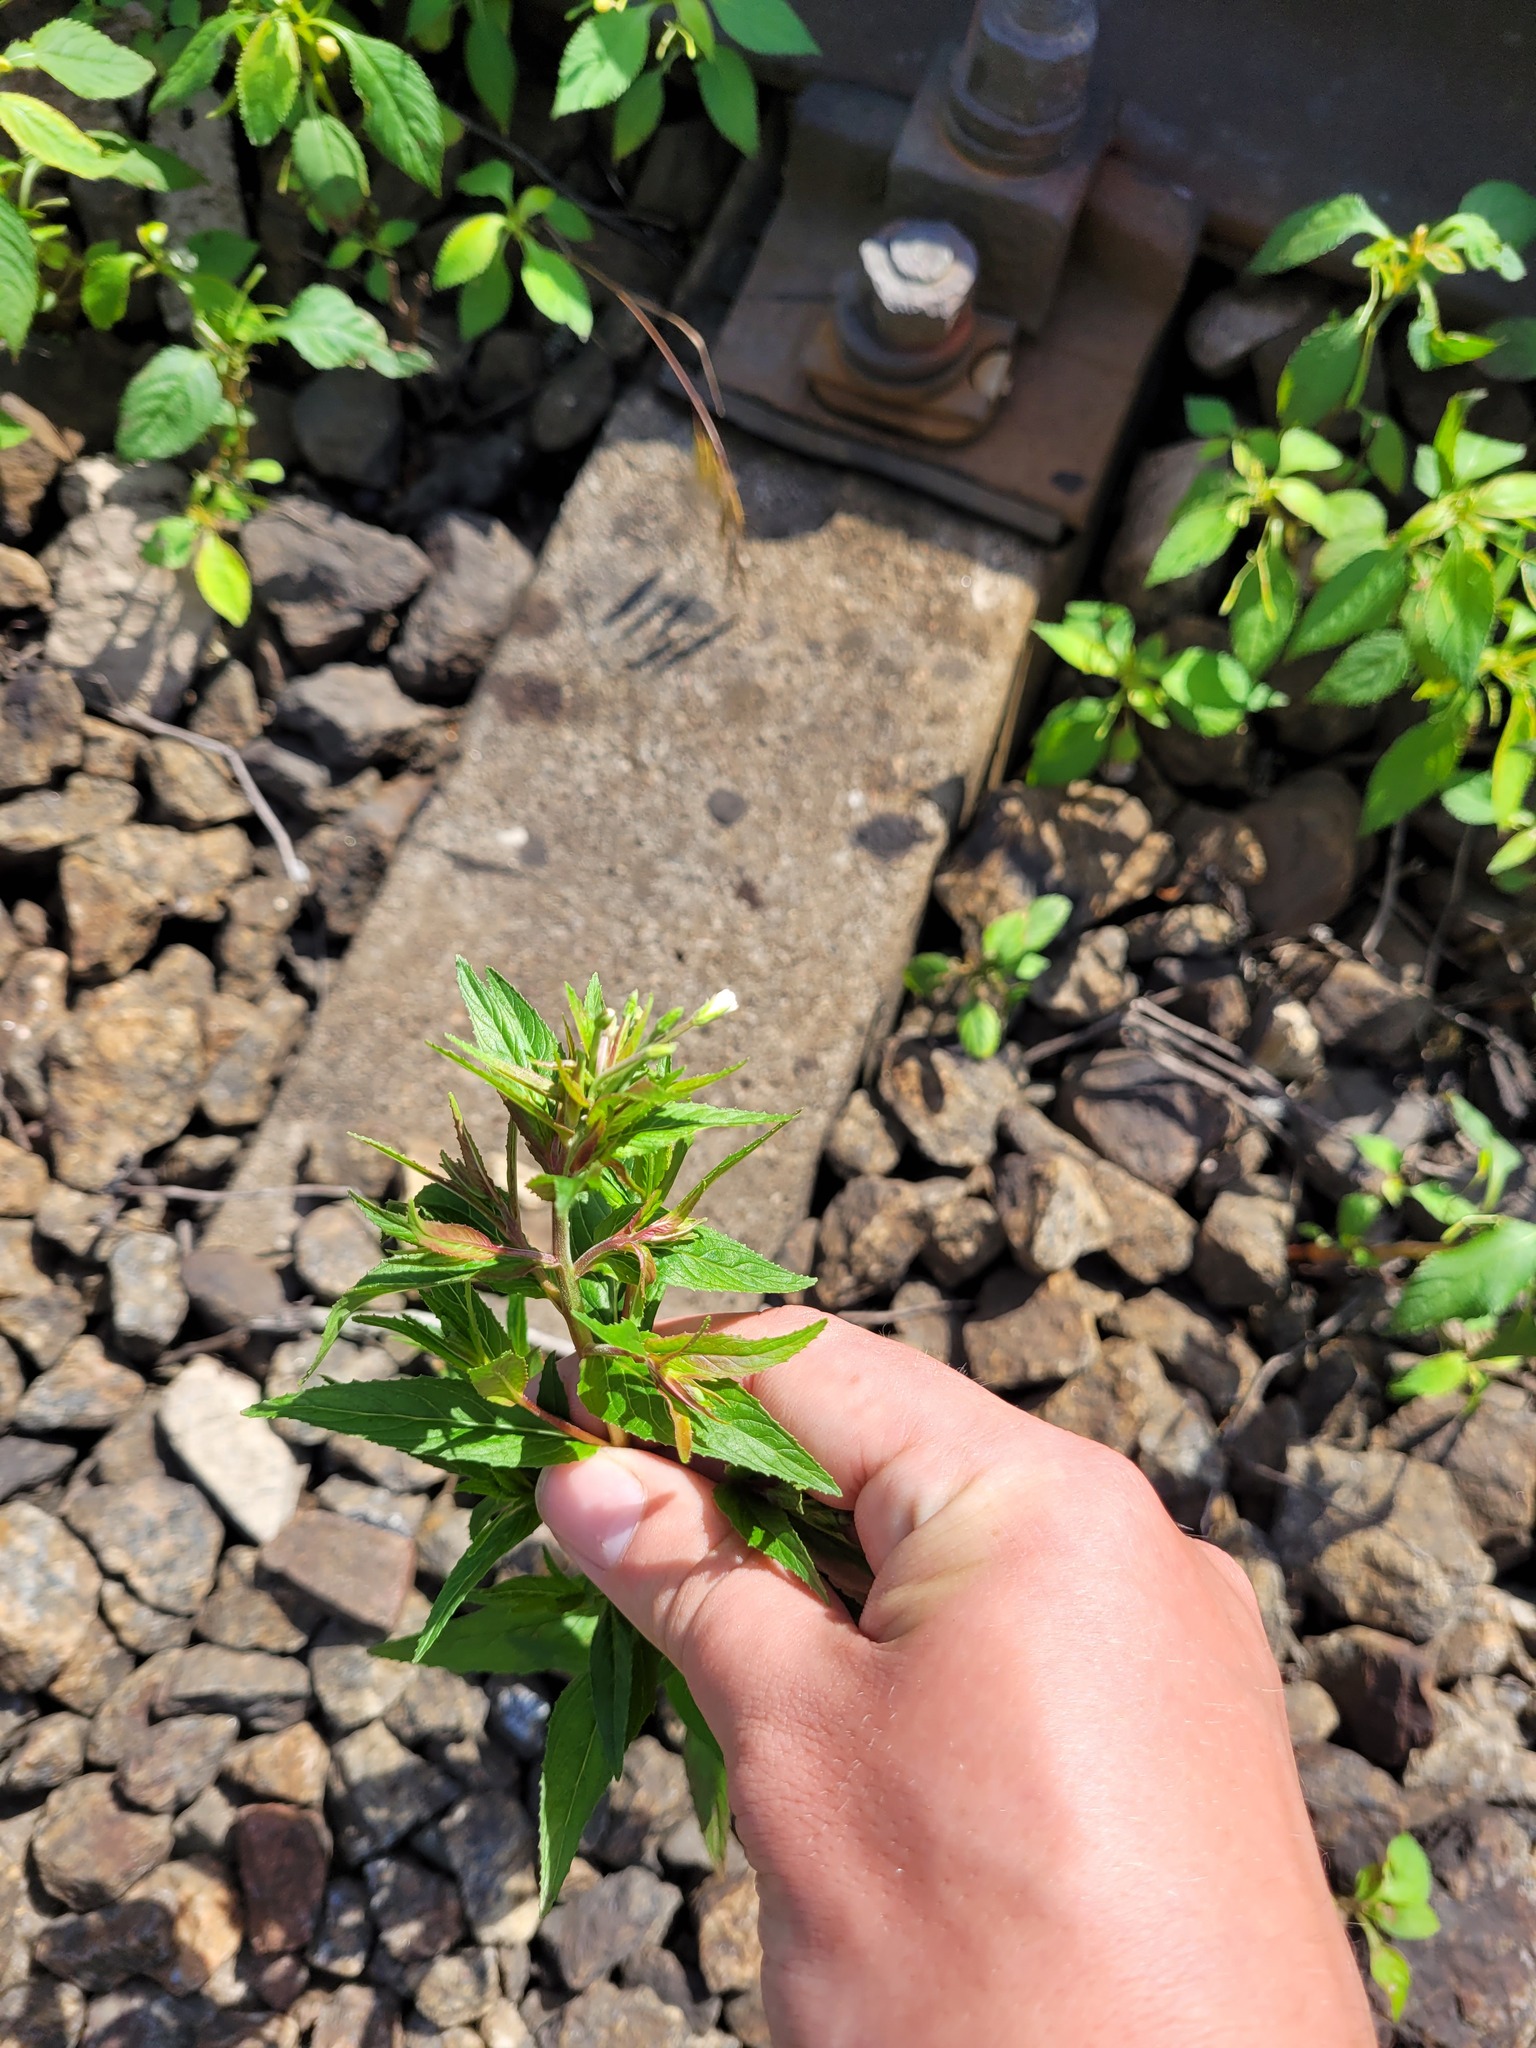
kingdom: Plantae
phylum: Tracheophyta
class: Magnoliopsida
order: Myrtales
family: Onagraceae
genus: Epilobium
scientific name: Epilobium pseudorubescens
